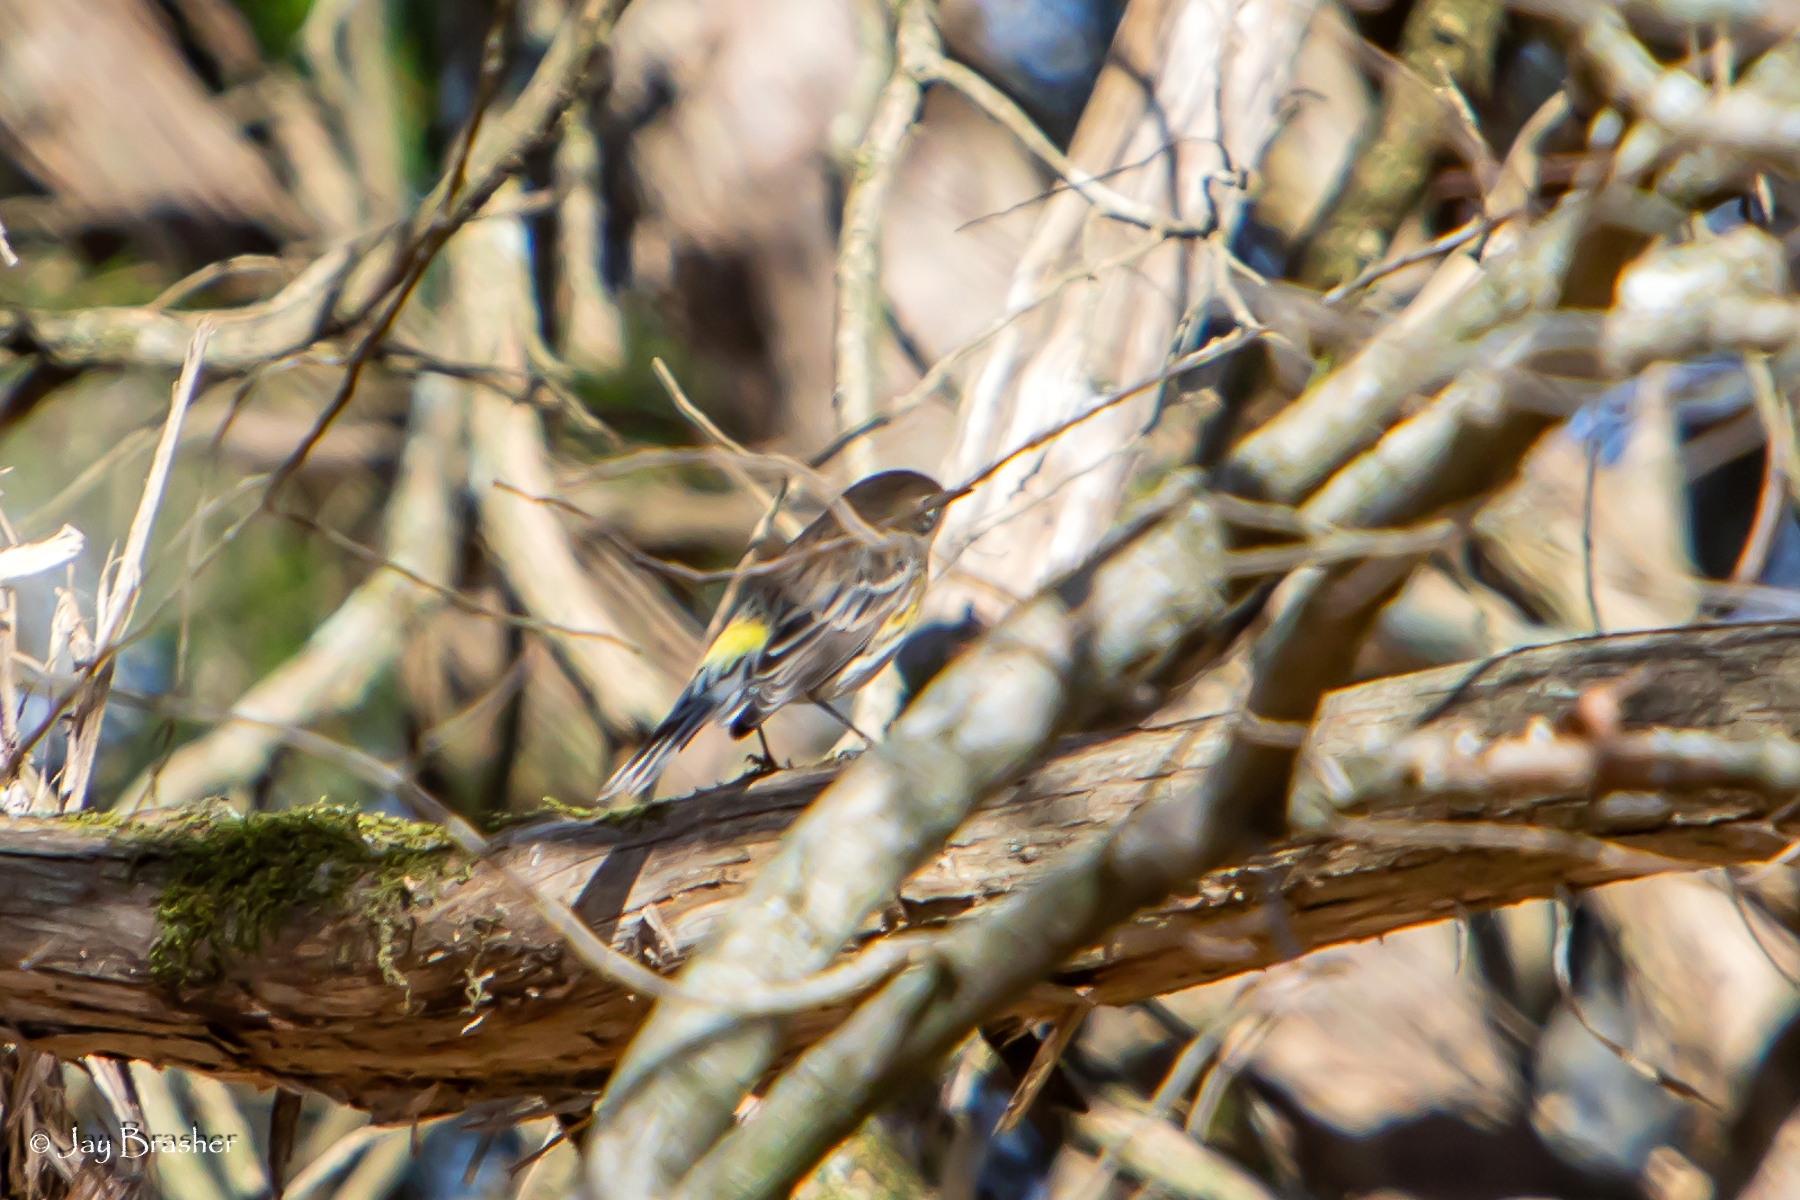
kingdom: Animalia
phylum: Chordata
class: Aves
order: Passeriformes
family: Parulidae
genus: Setophaga
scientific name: Setophaga coronata
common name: Myrtle warbler
